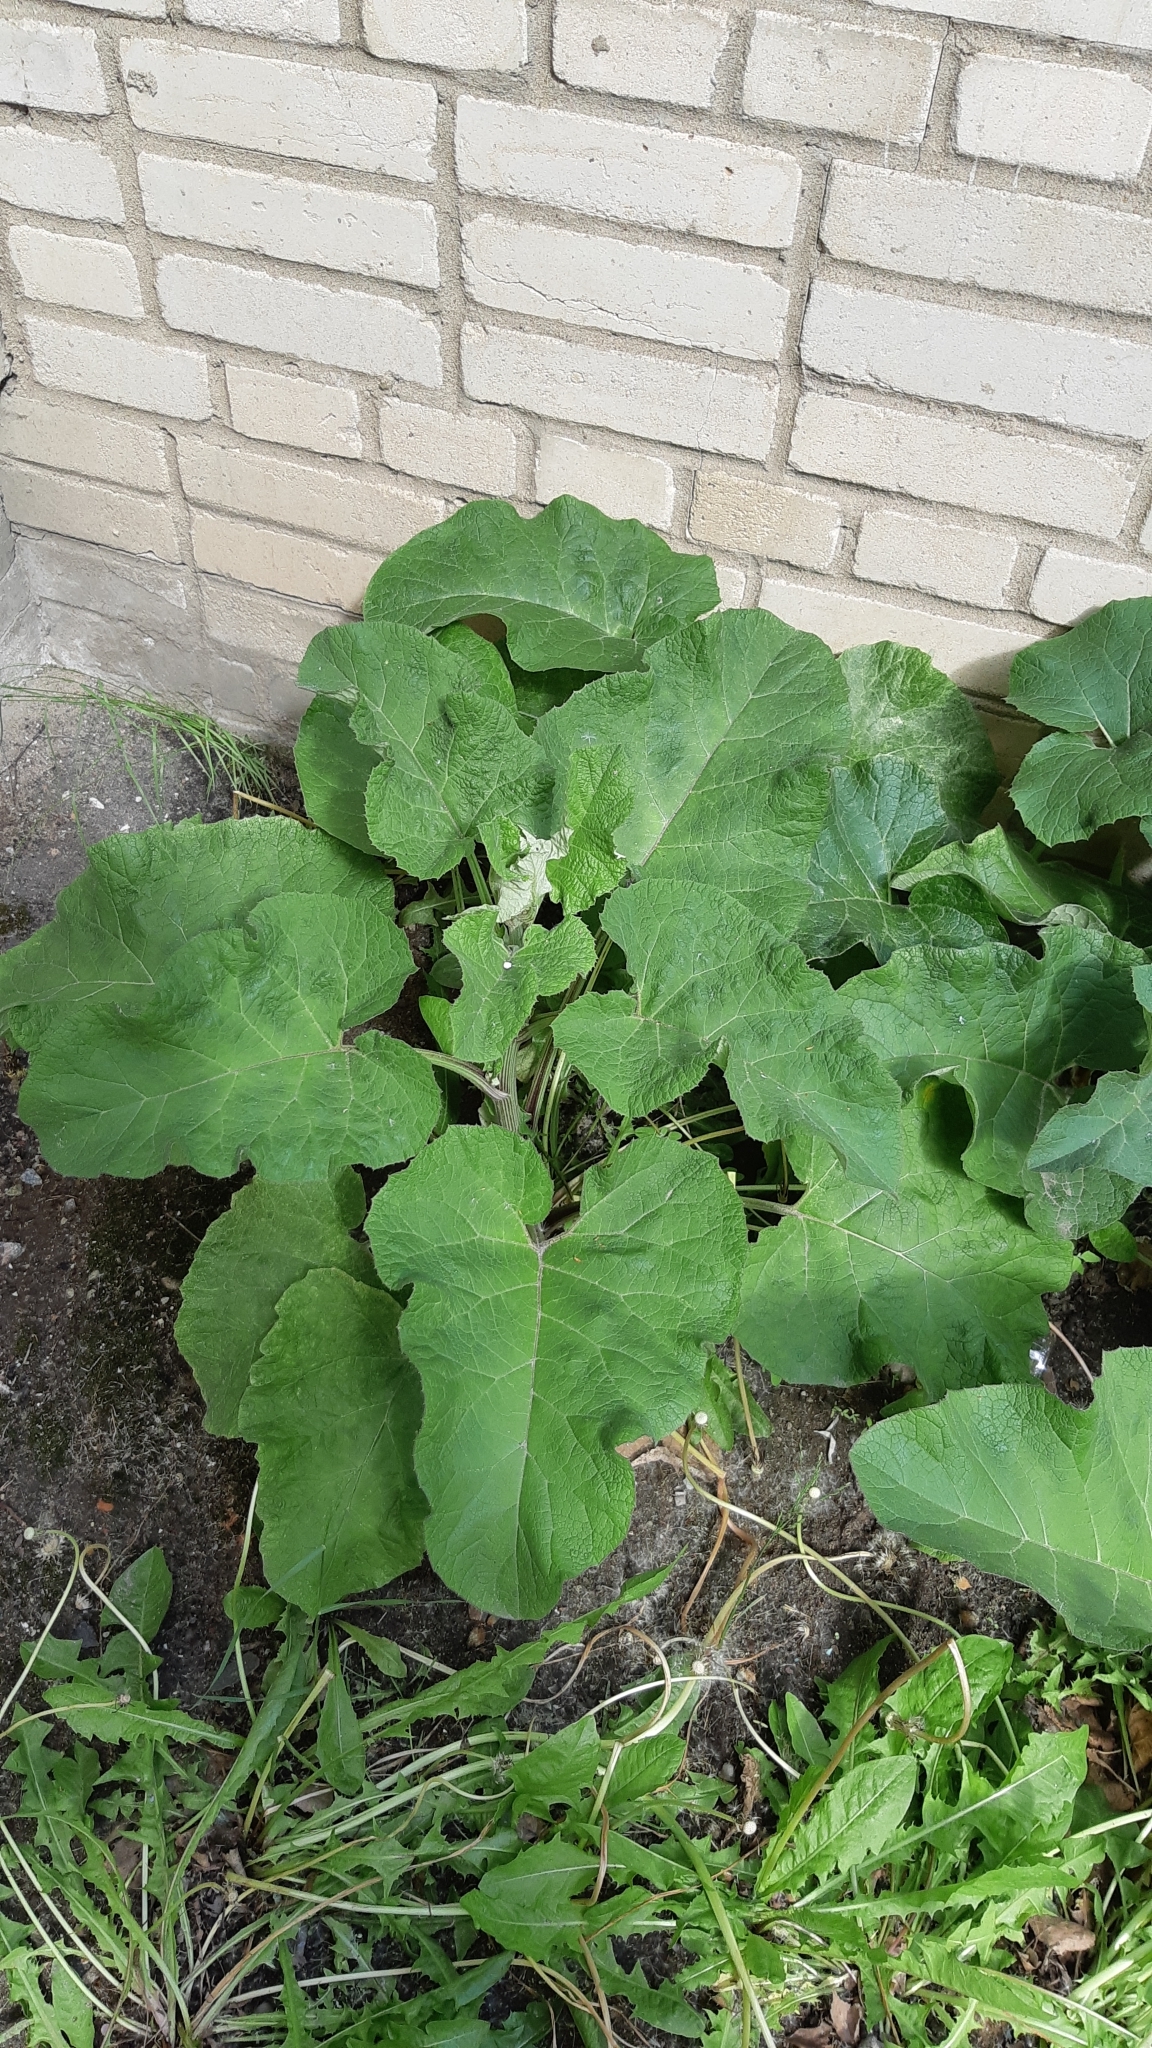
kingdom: Plantae
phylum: Tracheophyta
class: Magnoliopsida
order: Asterales
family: Asteraceae
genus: Arctium
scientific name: Arctium tomentosum
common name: Woolly burdock
